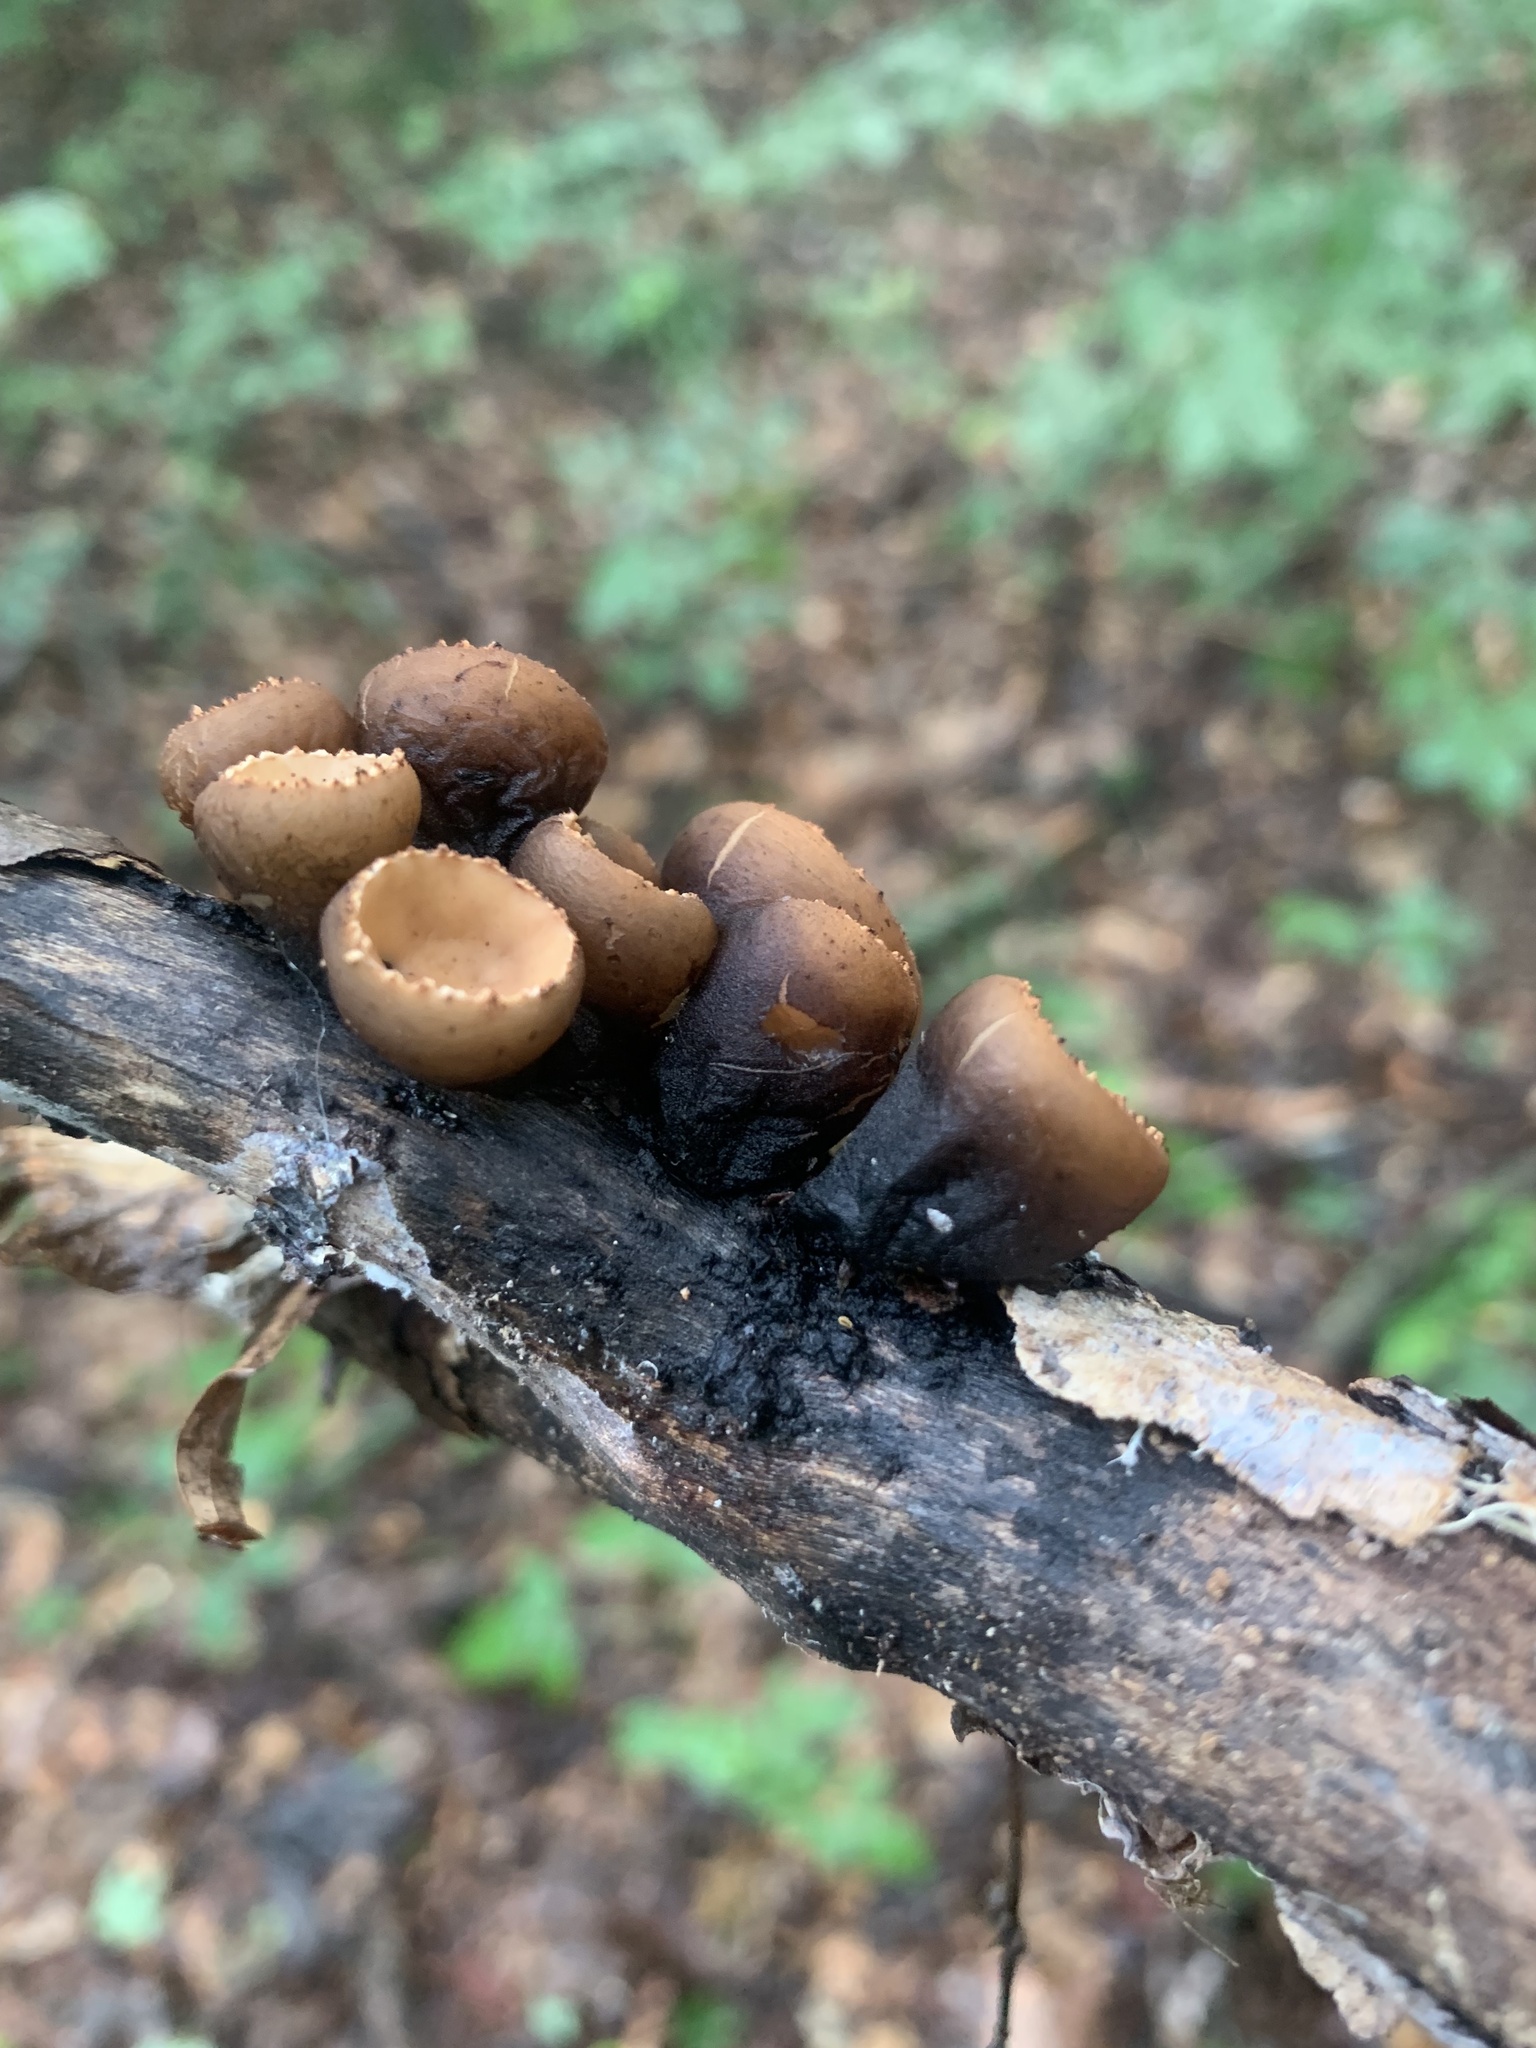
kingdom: Fungi
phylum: Ascomycota
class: Pezizomycetes
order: Pezizales
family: Sarcosomataceae
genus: Galiella
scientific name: Galiella rufa
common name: Hairy rubber cup
